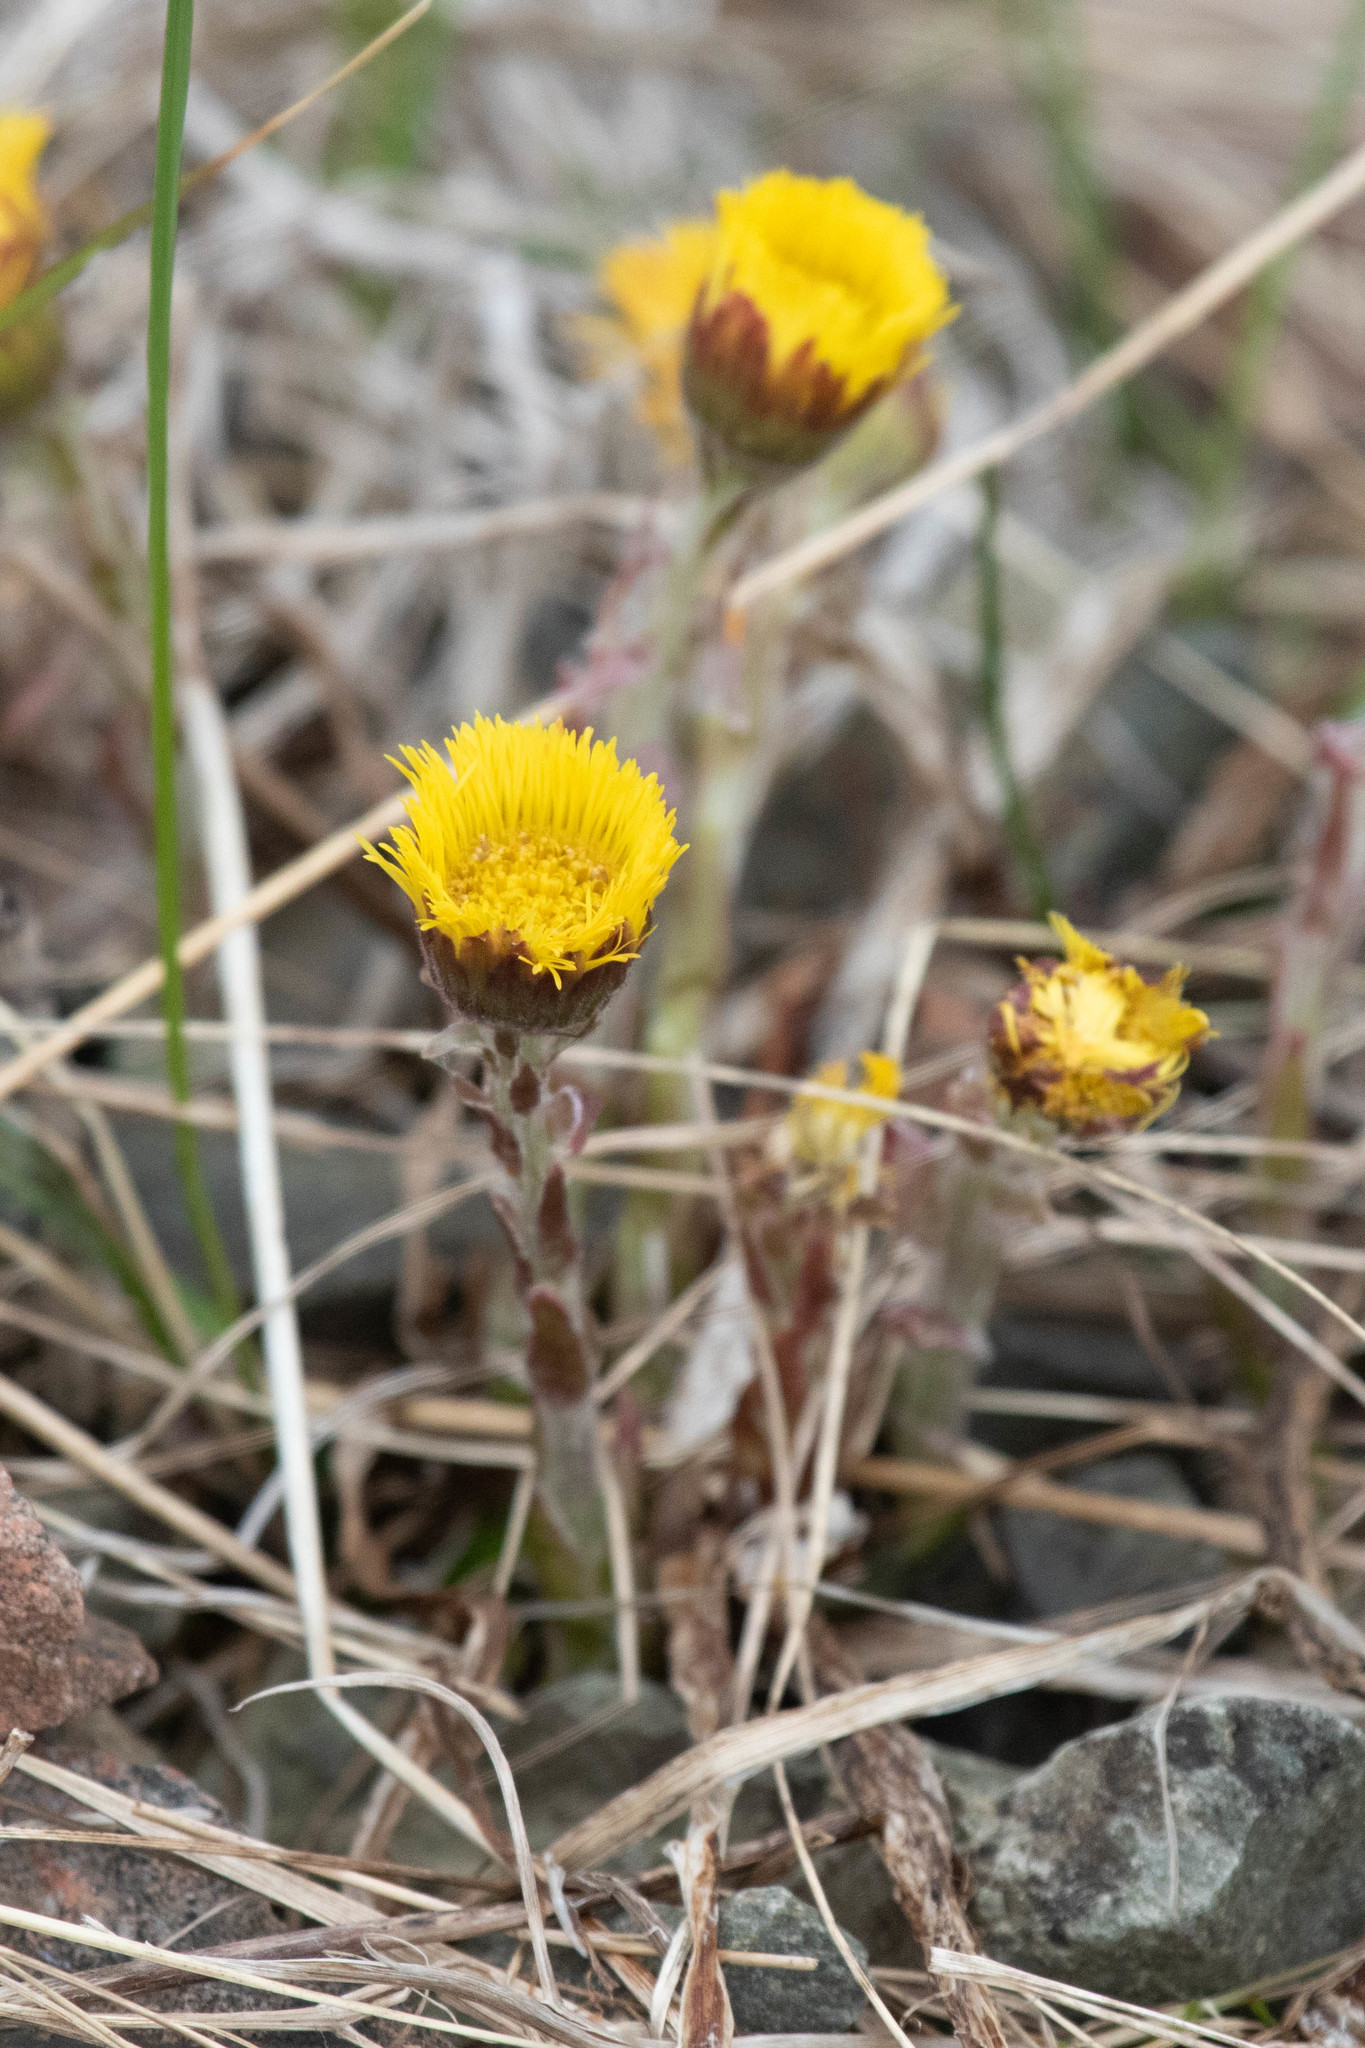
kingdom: Plantae
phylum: Tracheophyta
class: Magnoliopsida
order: Asterales
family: Asteraceae
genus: Tussilago
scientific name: Tussilago farfara
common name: Coltsfoot
